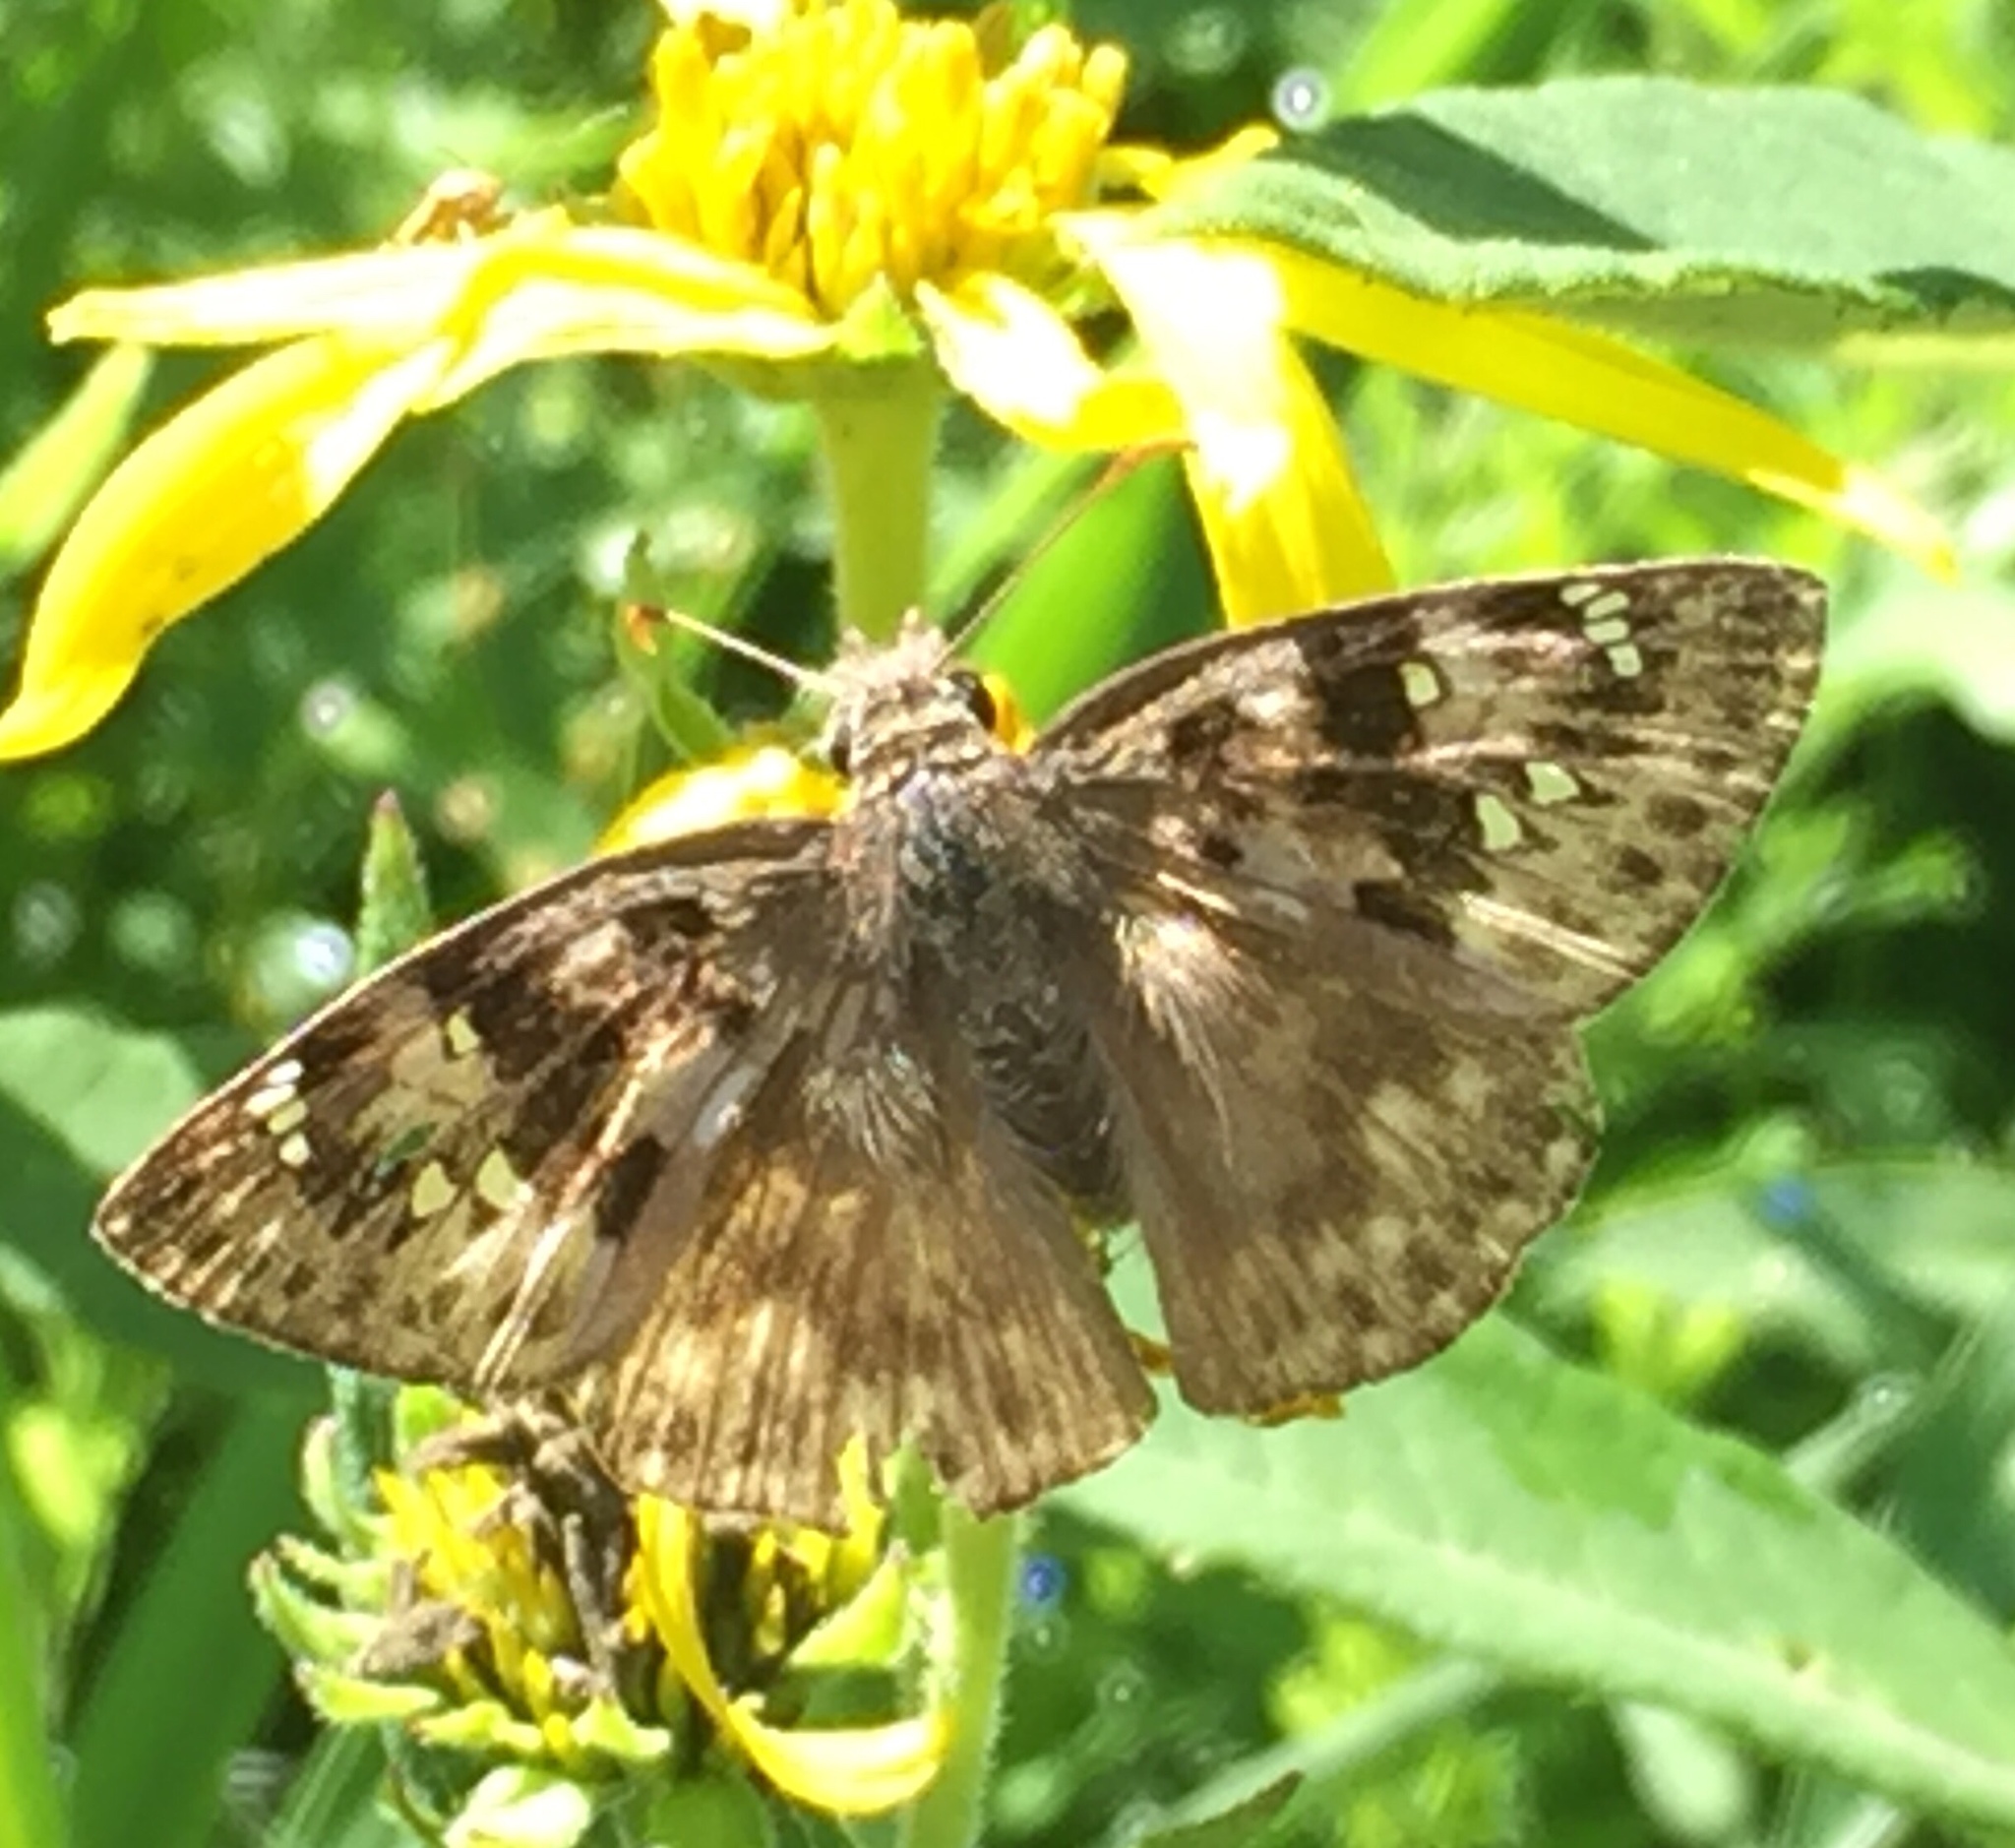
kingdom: Animalia
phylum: Arthropoda
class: Insecta
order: Lepidoptera
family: Hesperiidae
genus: Erynnis
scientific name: Erynnis horatius
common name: Horace's duskywing
